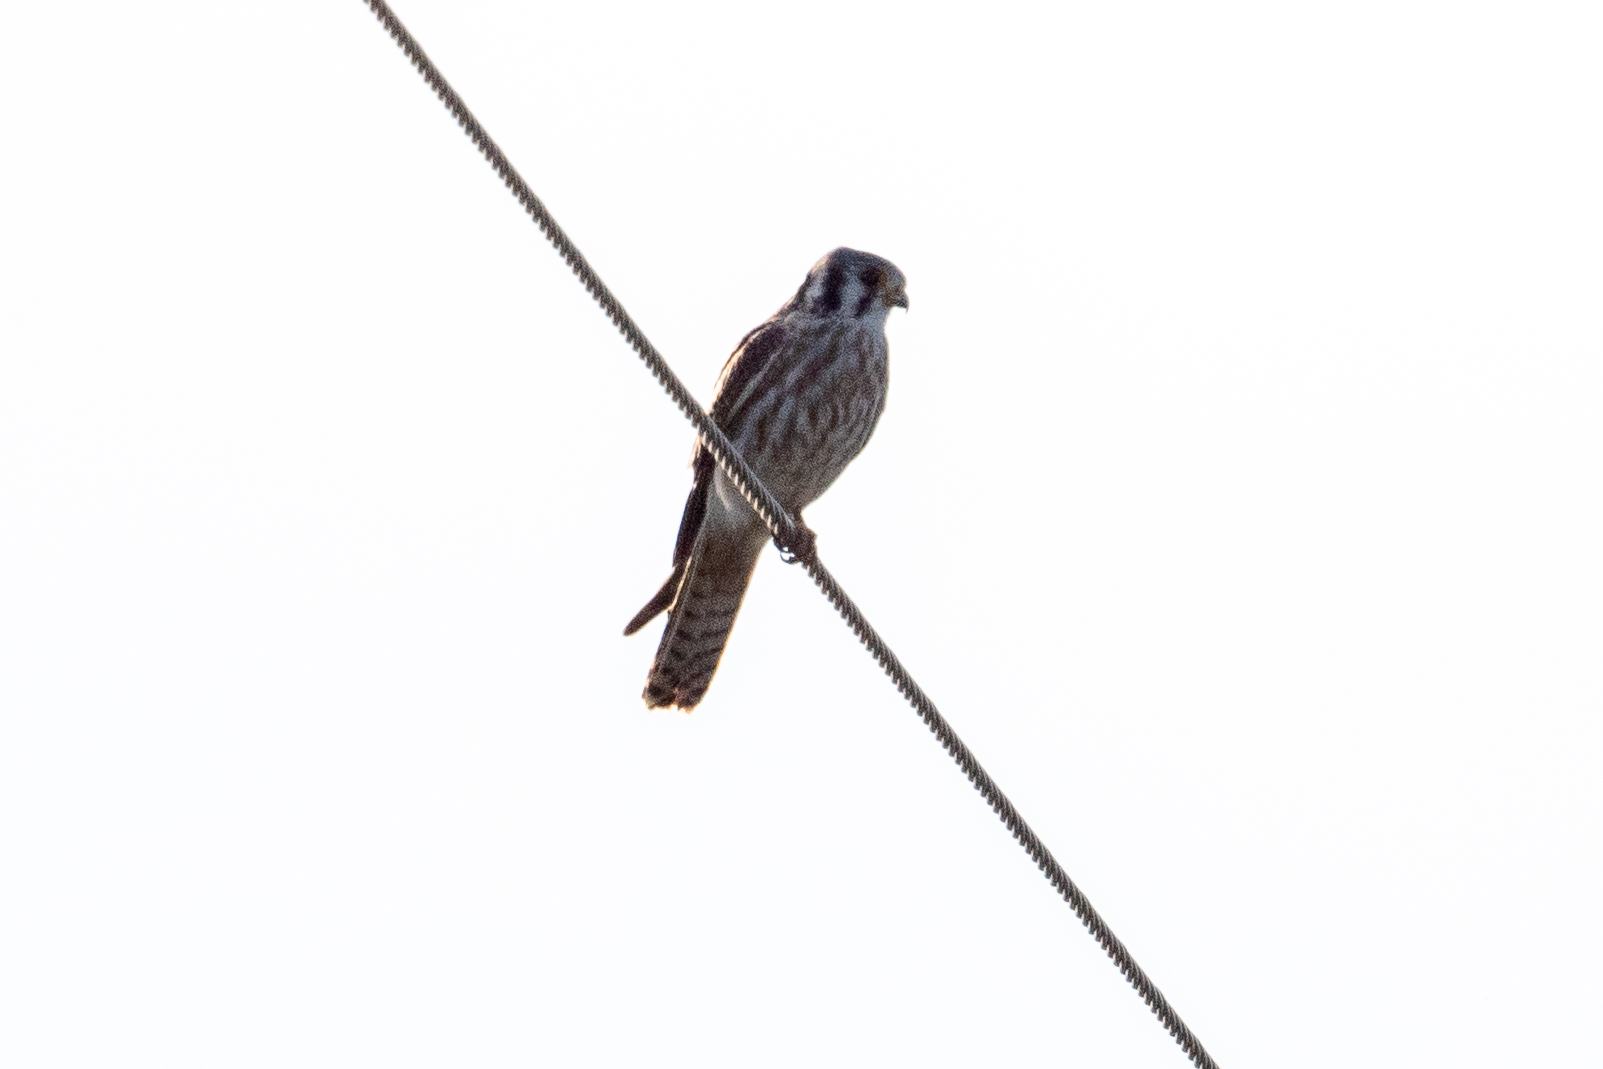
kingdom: Animalia
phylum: Chordata
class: Aves
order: Falconiformes
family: Falconidae
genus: Falco
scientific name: Falco sparverius
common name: American kestrel
